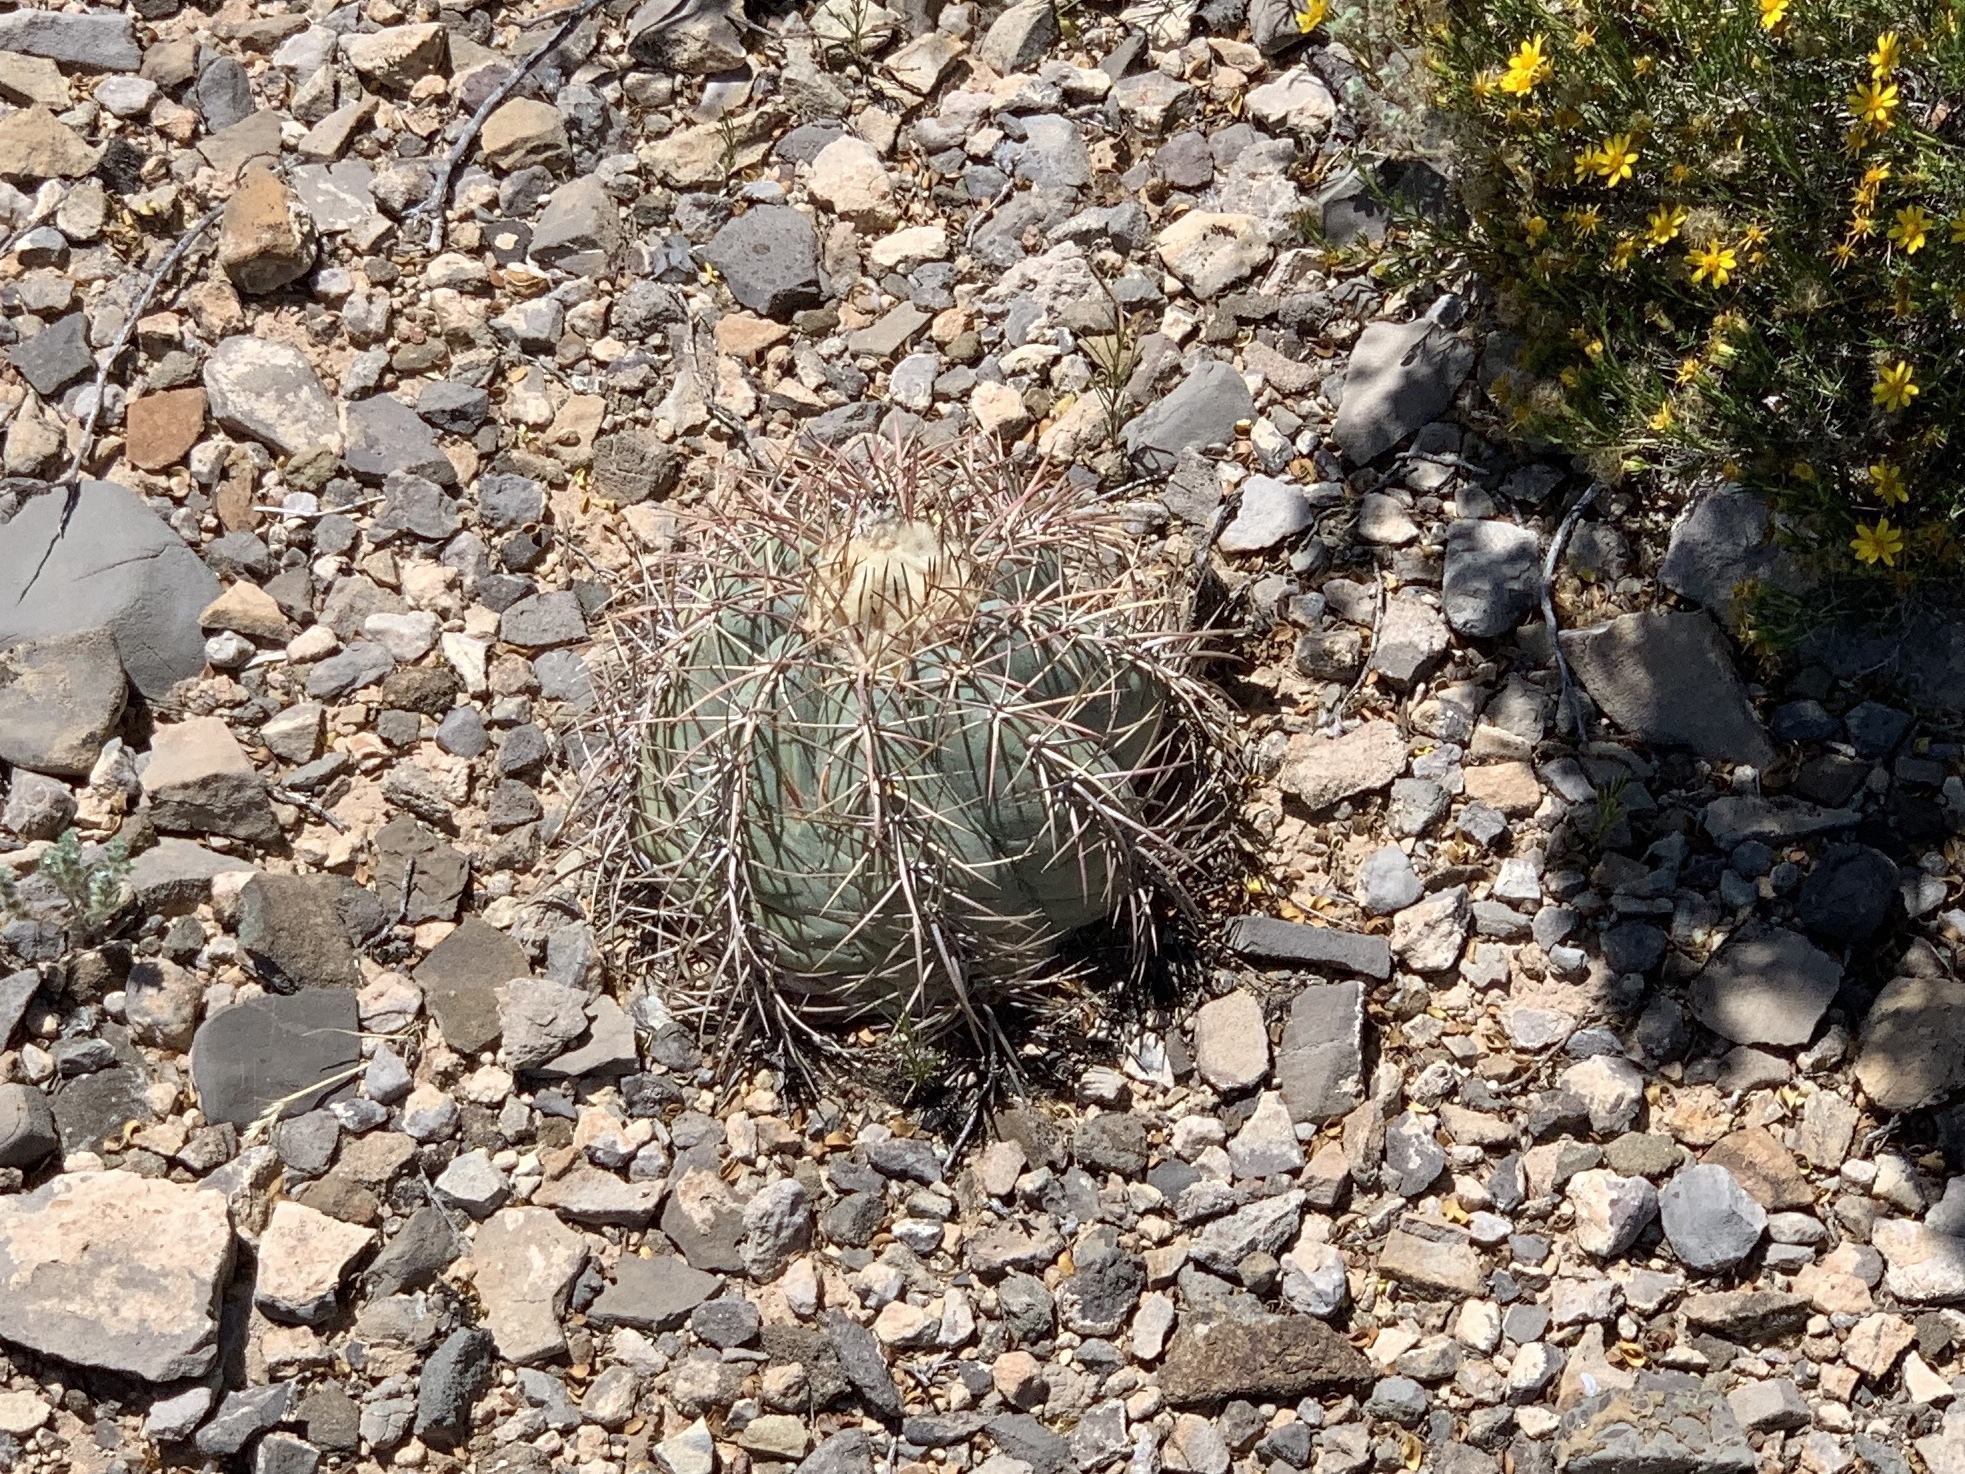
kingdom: Plantae
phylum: Tracheophyta
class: Magnoliopsida
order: Caryophyllales
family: Cactaceae
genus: Echinocactus
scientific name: Echinocactus horizonthalonius
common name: Devilshead
